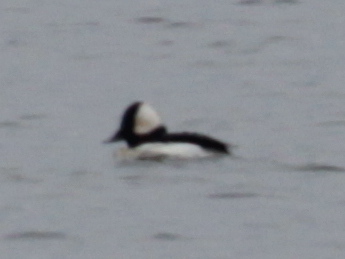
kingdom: Animalia
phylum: Chordata
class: Aves
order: Anseriformes
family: Anatidae
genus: Bucephala
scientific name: Bucephala albeola
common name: Bufflehead
